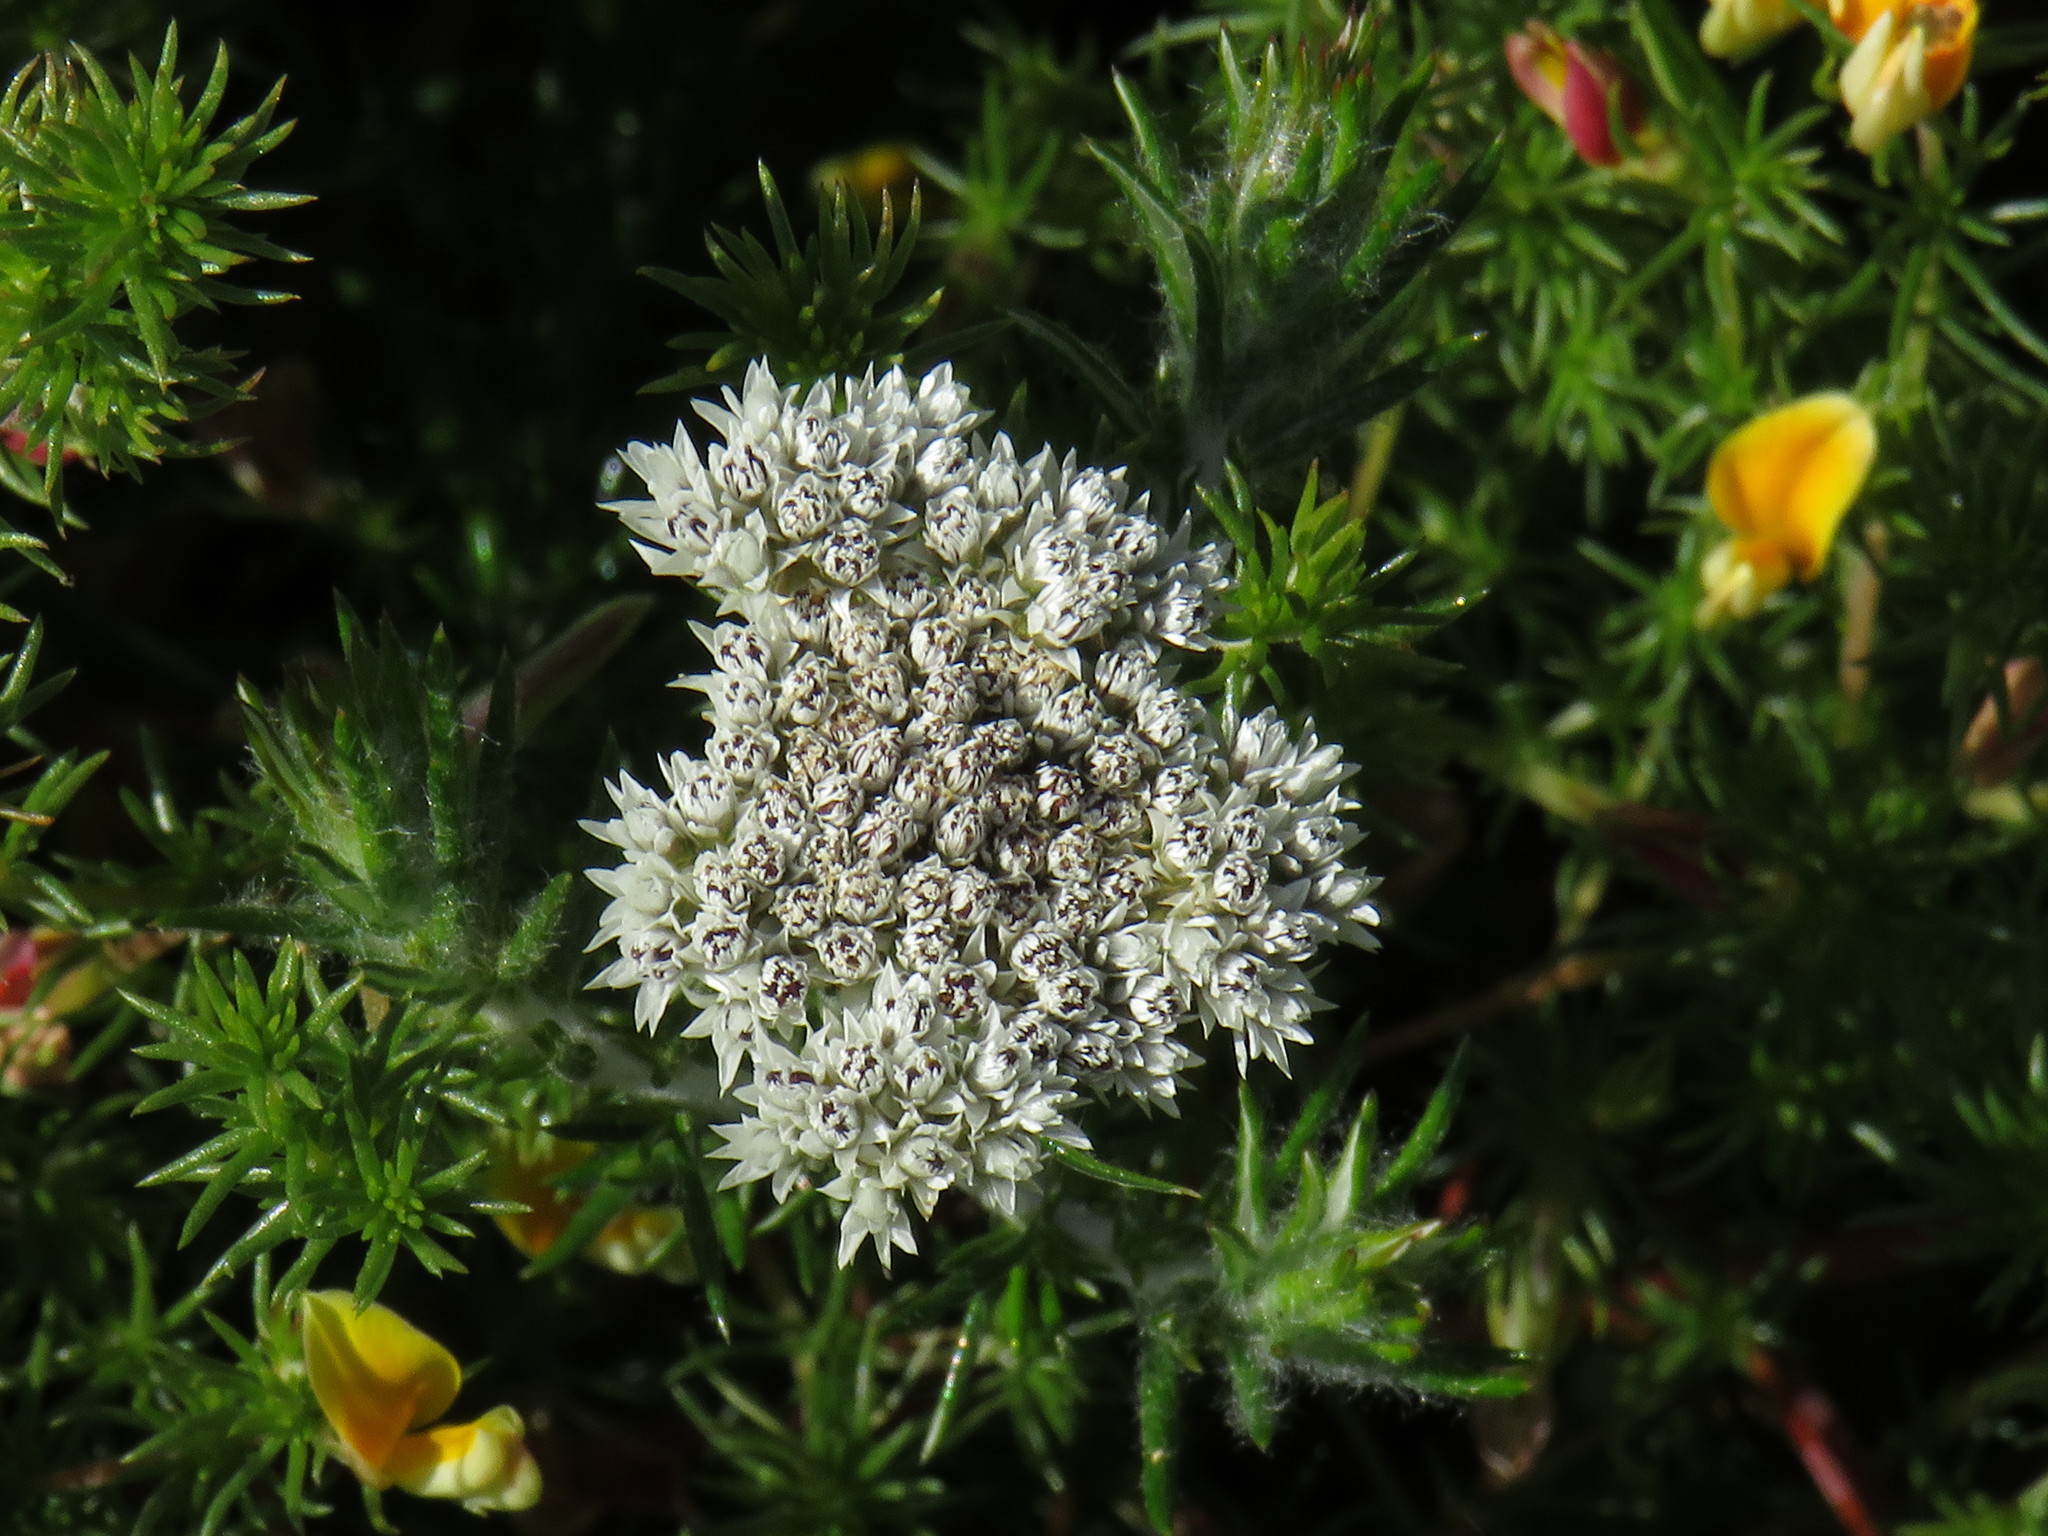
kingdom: Plantae
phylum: Tracheophyta
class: Magnoliopsida
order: Asterales
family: Asteraceae
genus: Metalasia
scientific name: Metalasia pulchella
